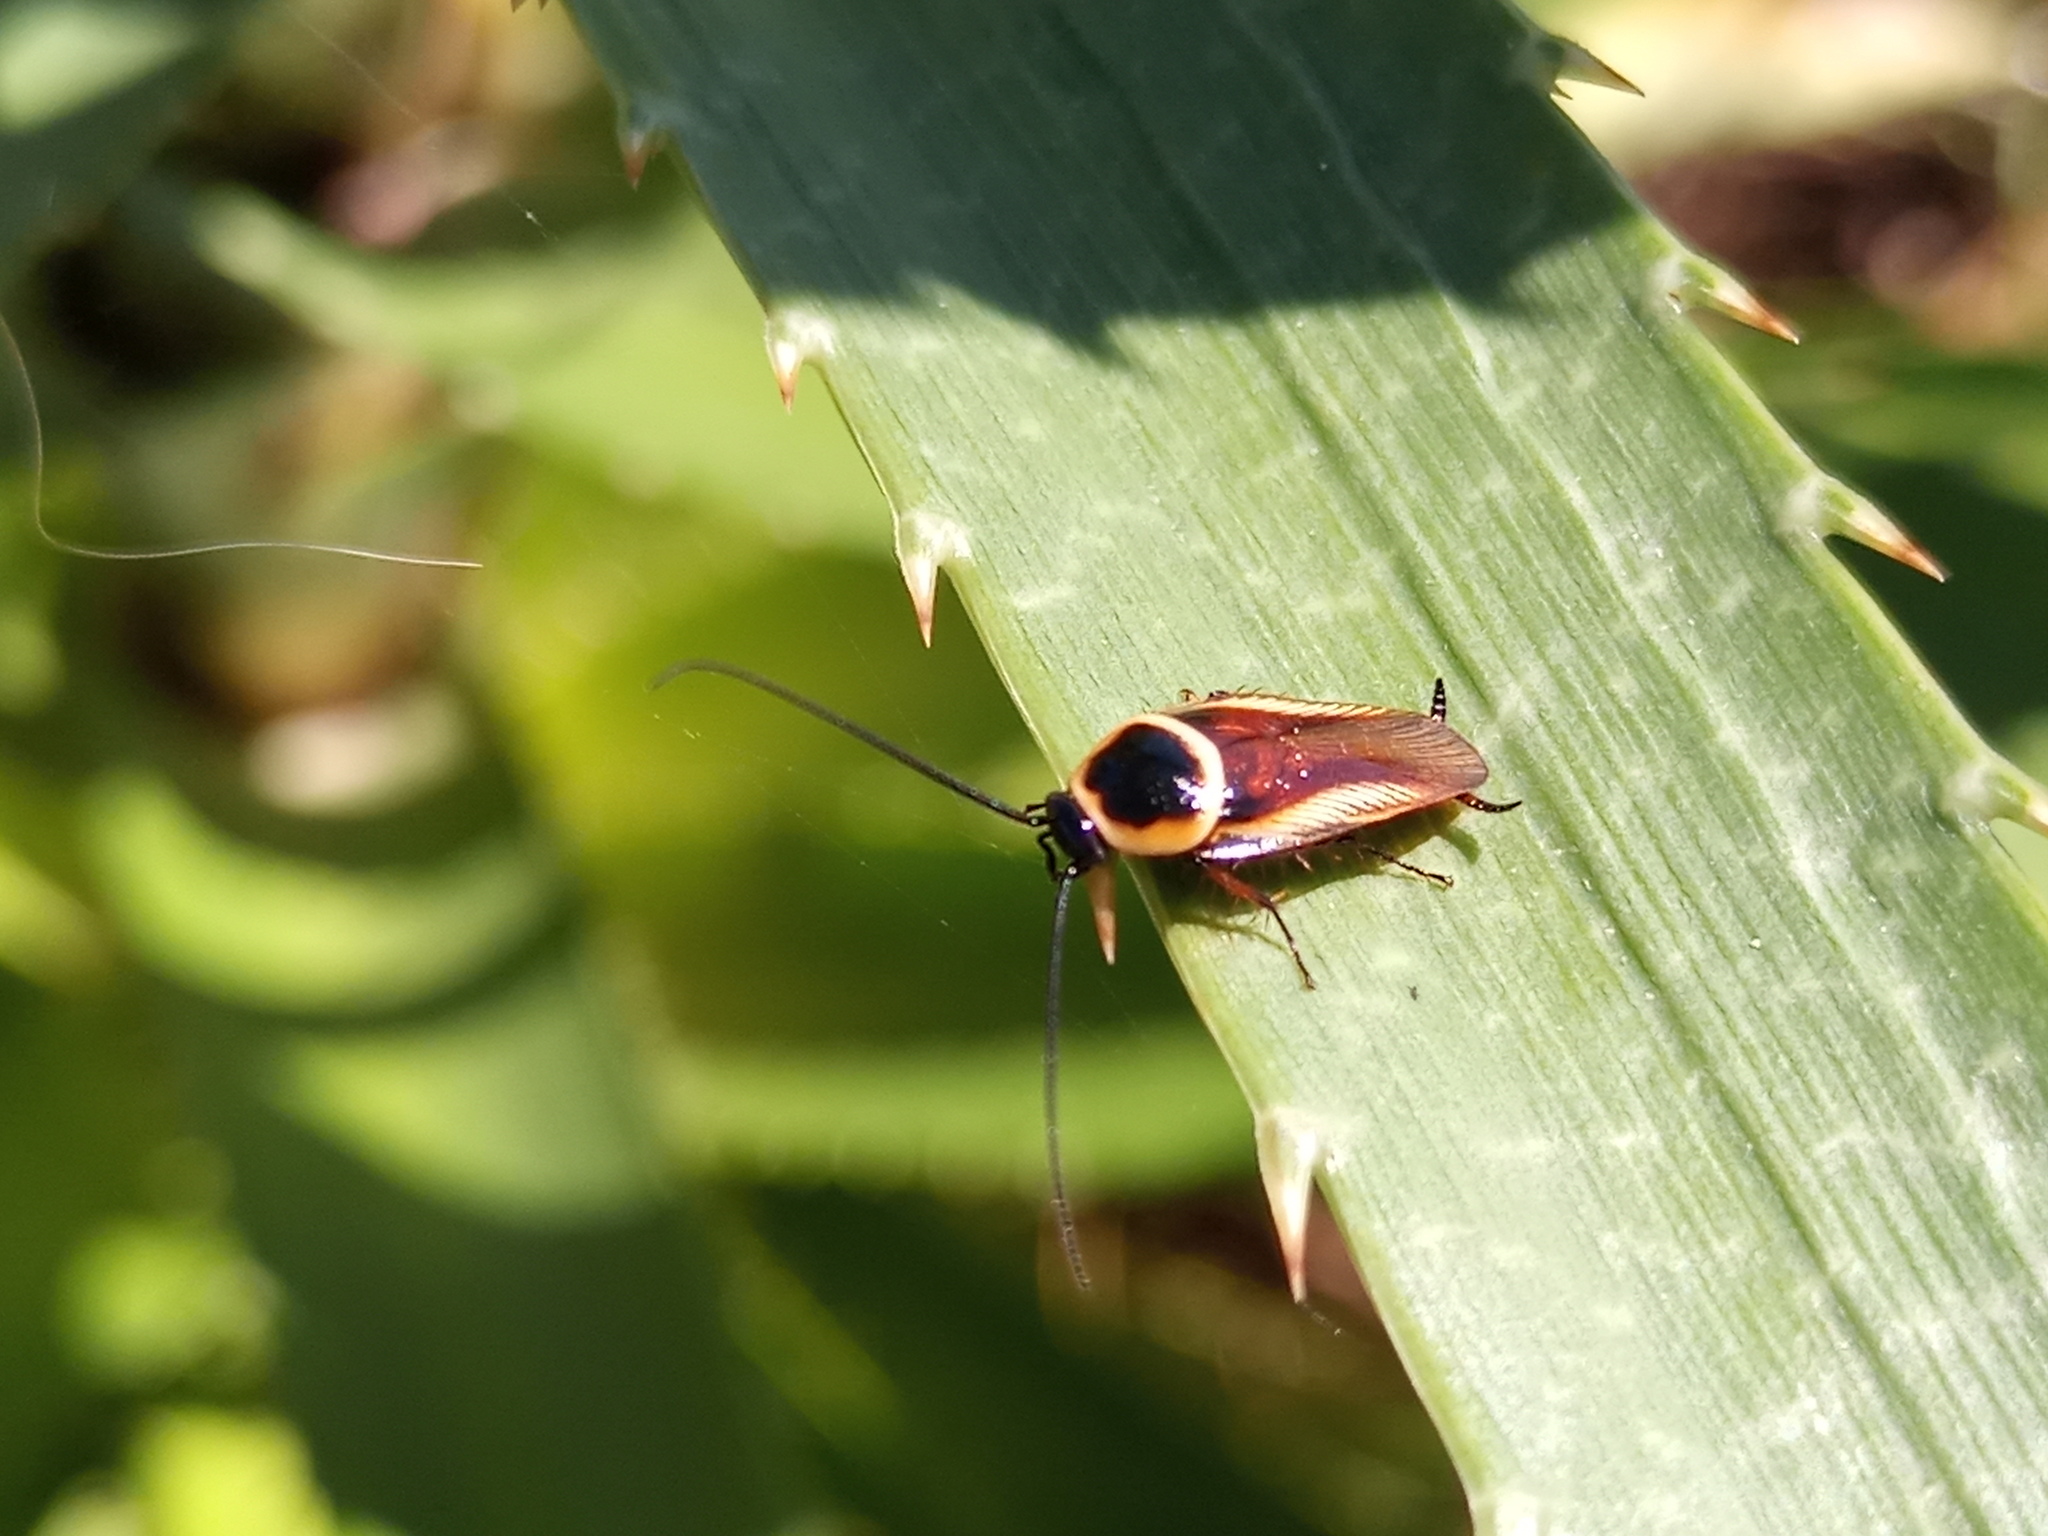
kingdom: Animalia
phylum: Arthropoda
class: Insecta
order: Blattodea
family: Ectobiidae
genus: Pseudomops
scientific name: Pseudomops neglectus
